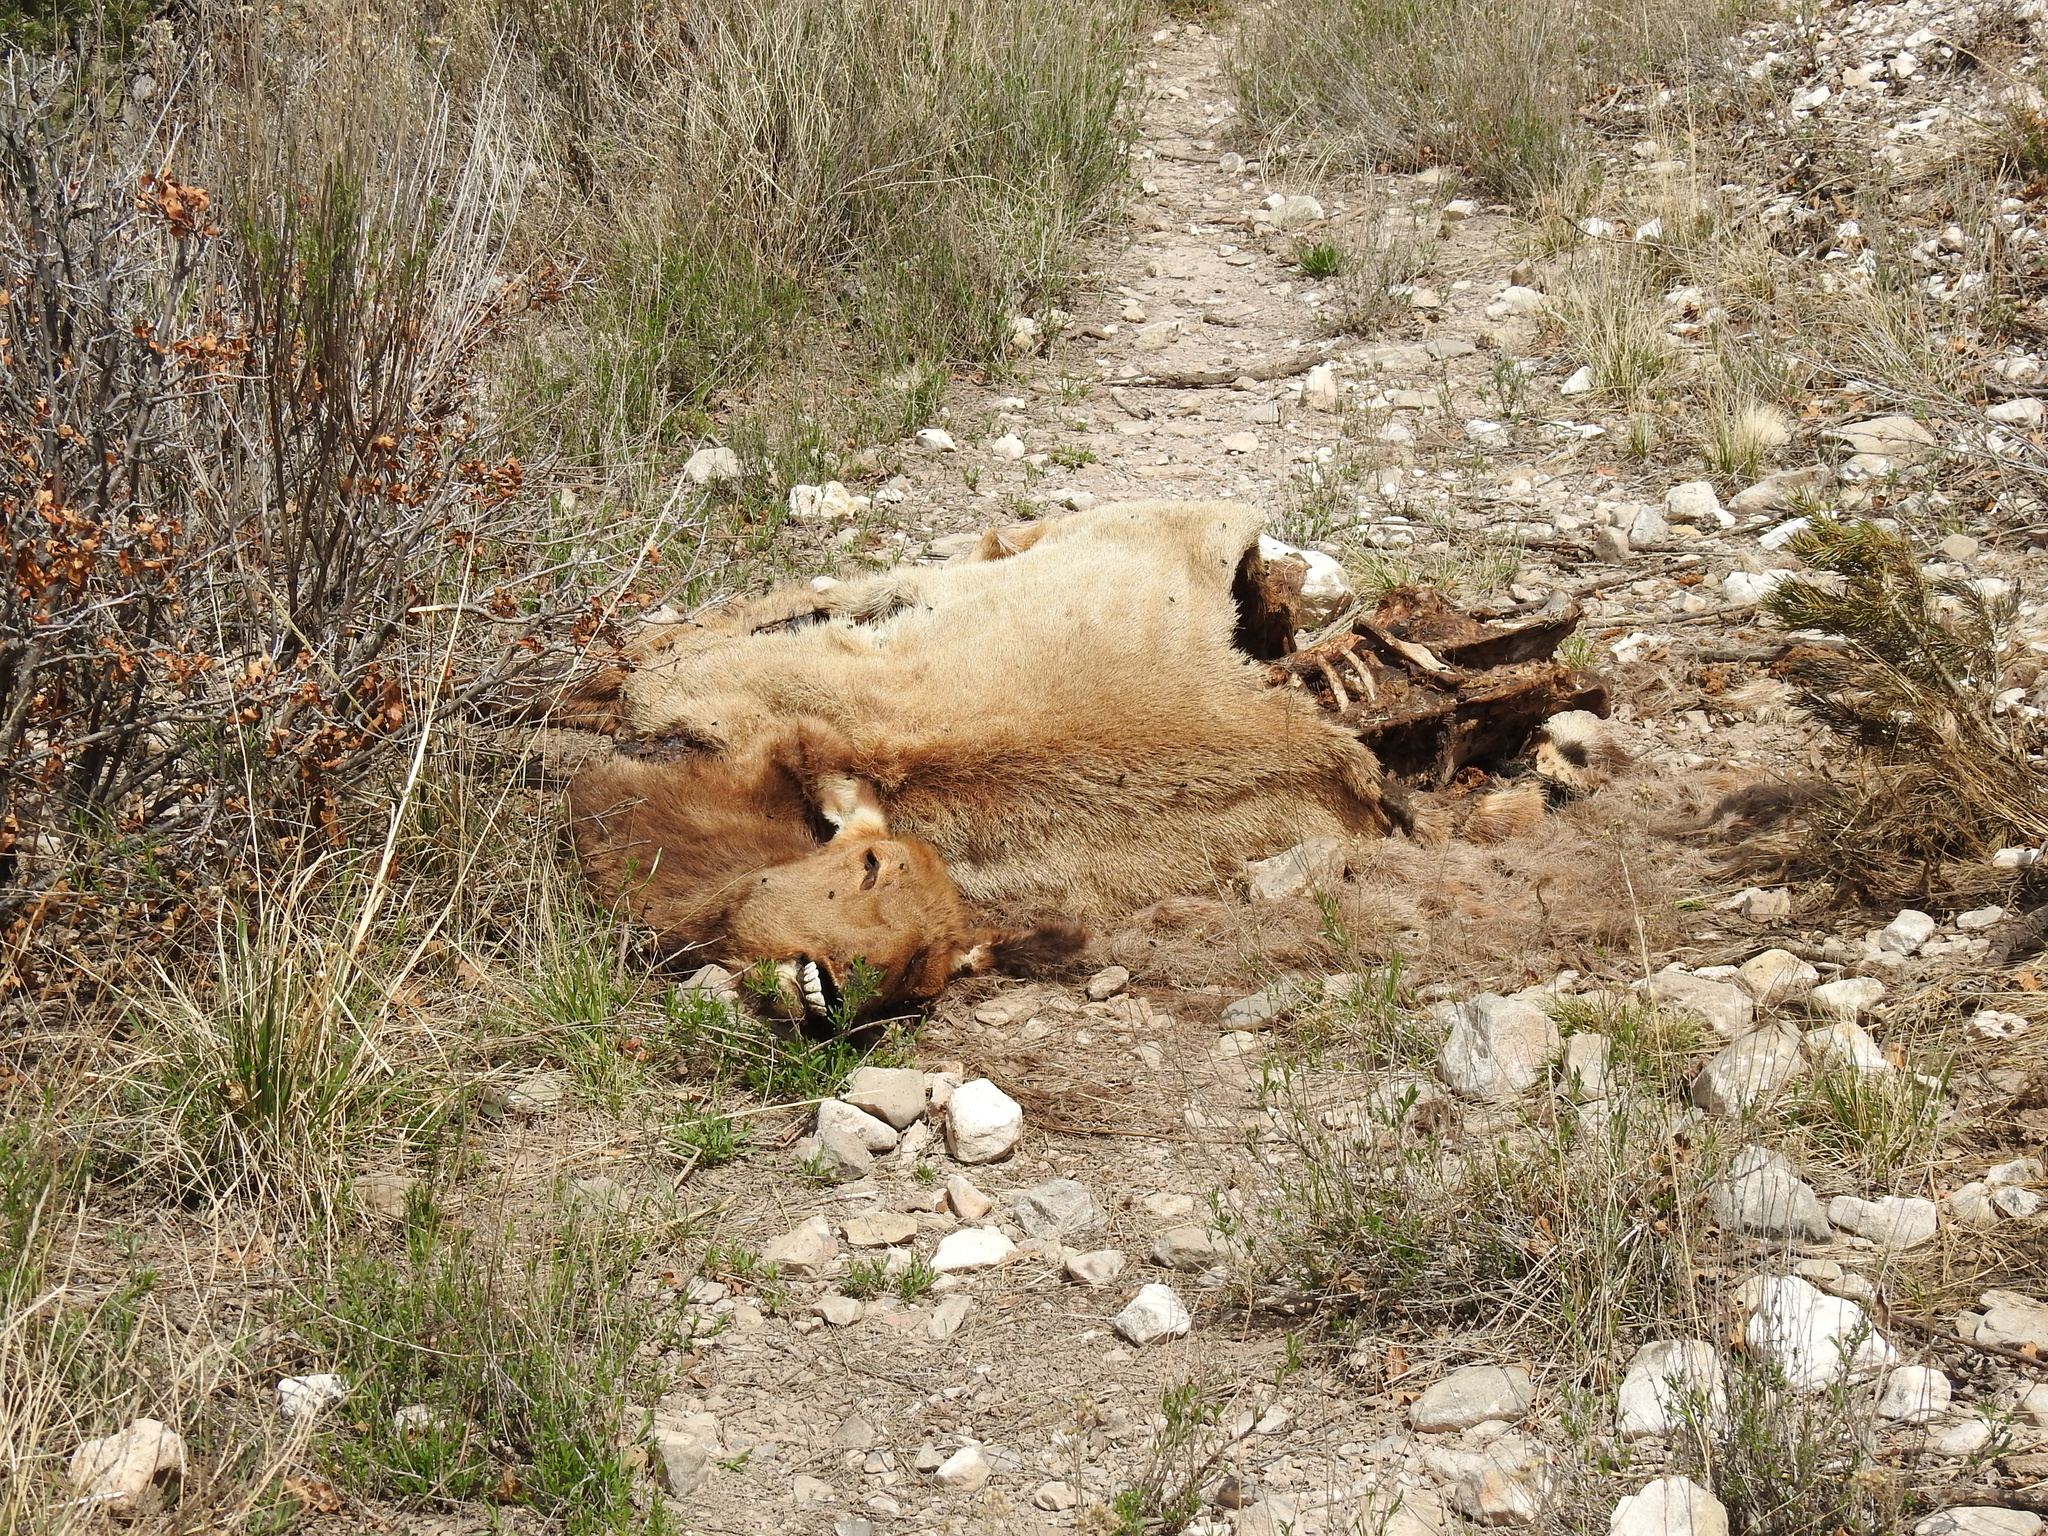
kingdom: Animalia
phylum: Chordata
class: Mammalia
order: Artiodactyla
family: Cervidae
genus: Cervus
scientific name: Cervus elaphus
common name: Red deer
